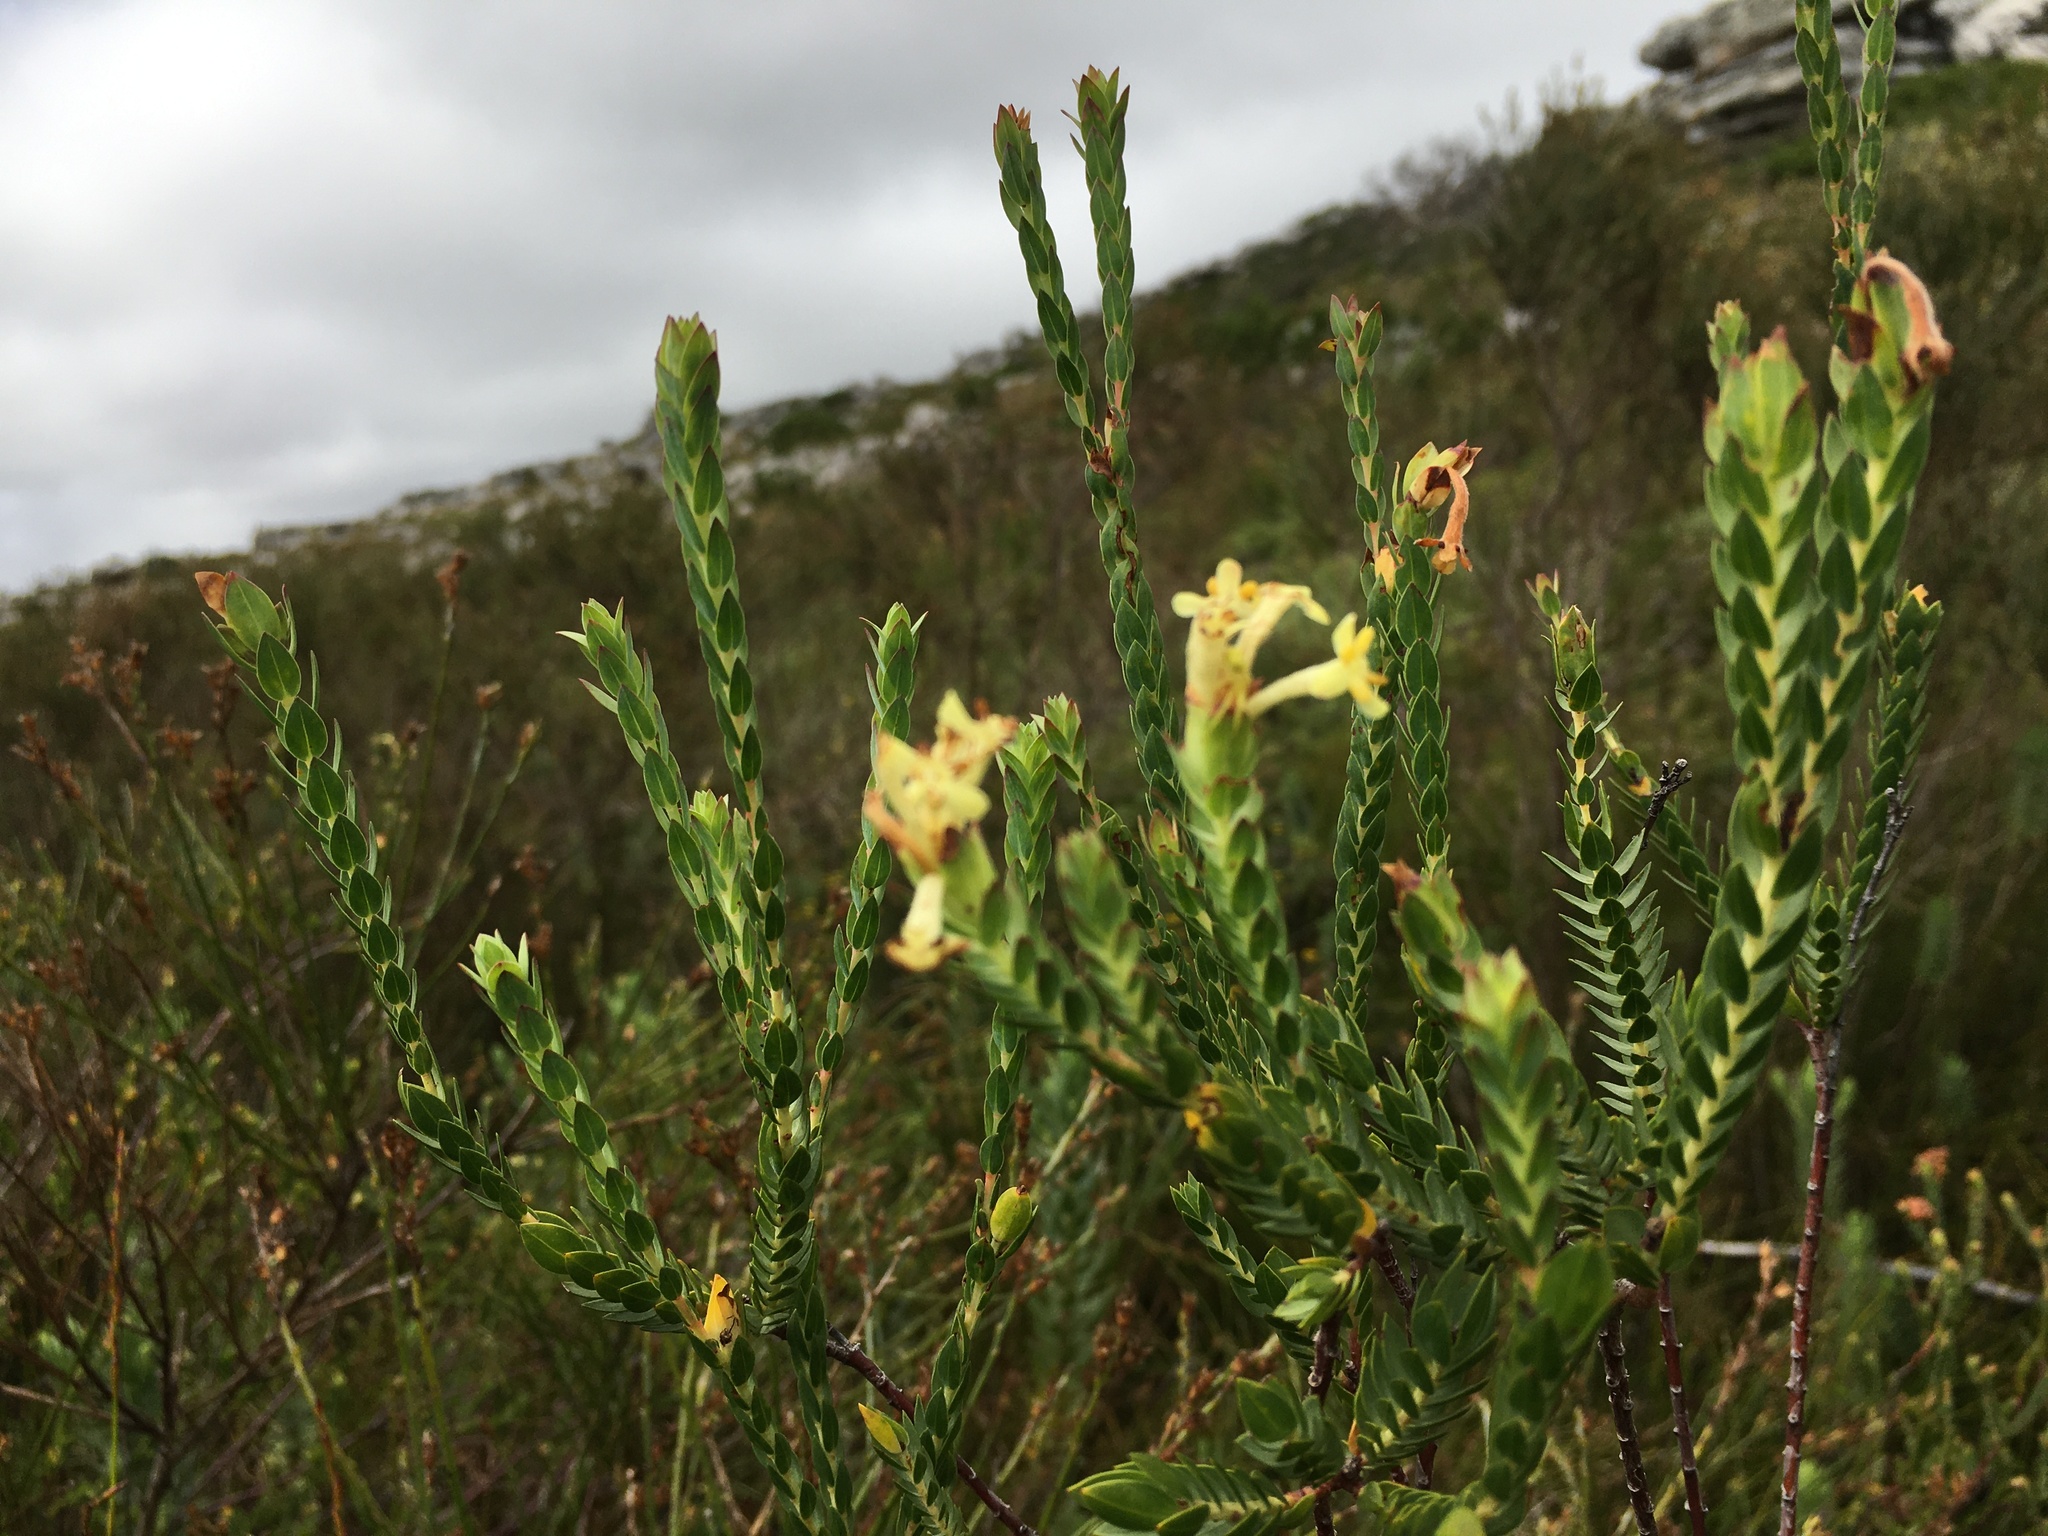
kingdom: Plantae
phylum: Tracheophyta
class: Magnoliopsida
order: Malvales
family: Thymelaeaceae
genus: Gnidia
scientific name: Gnidia oppositifolia
